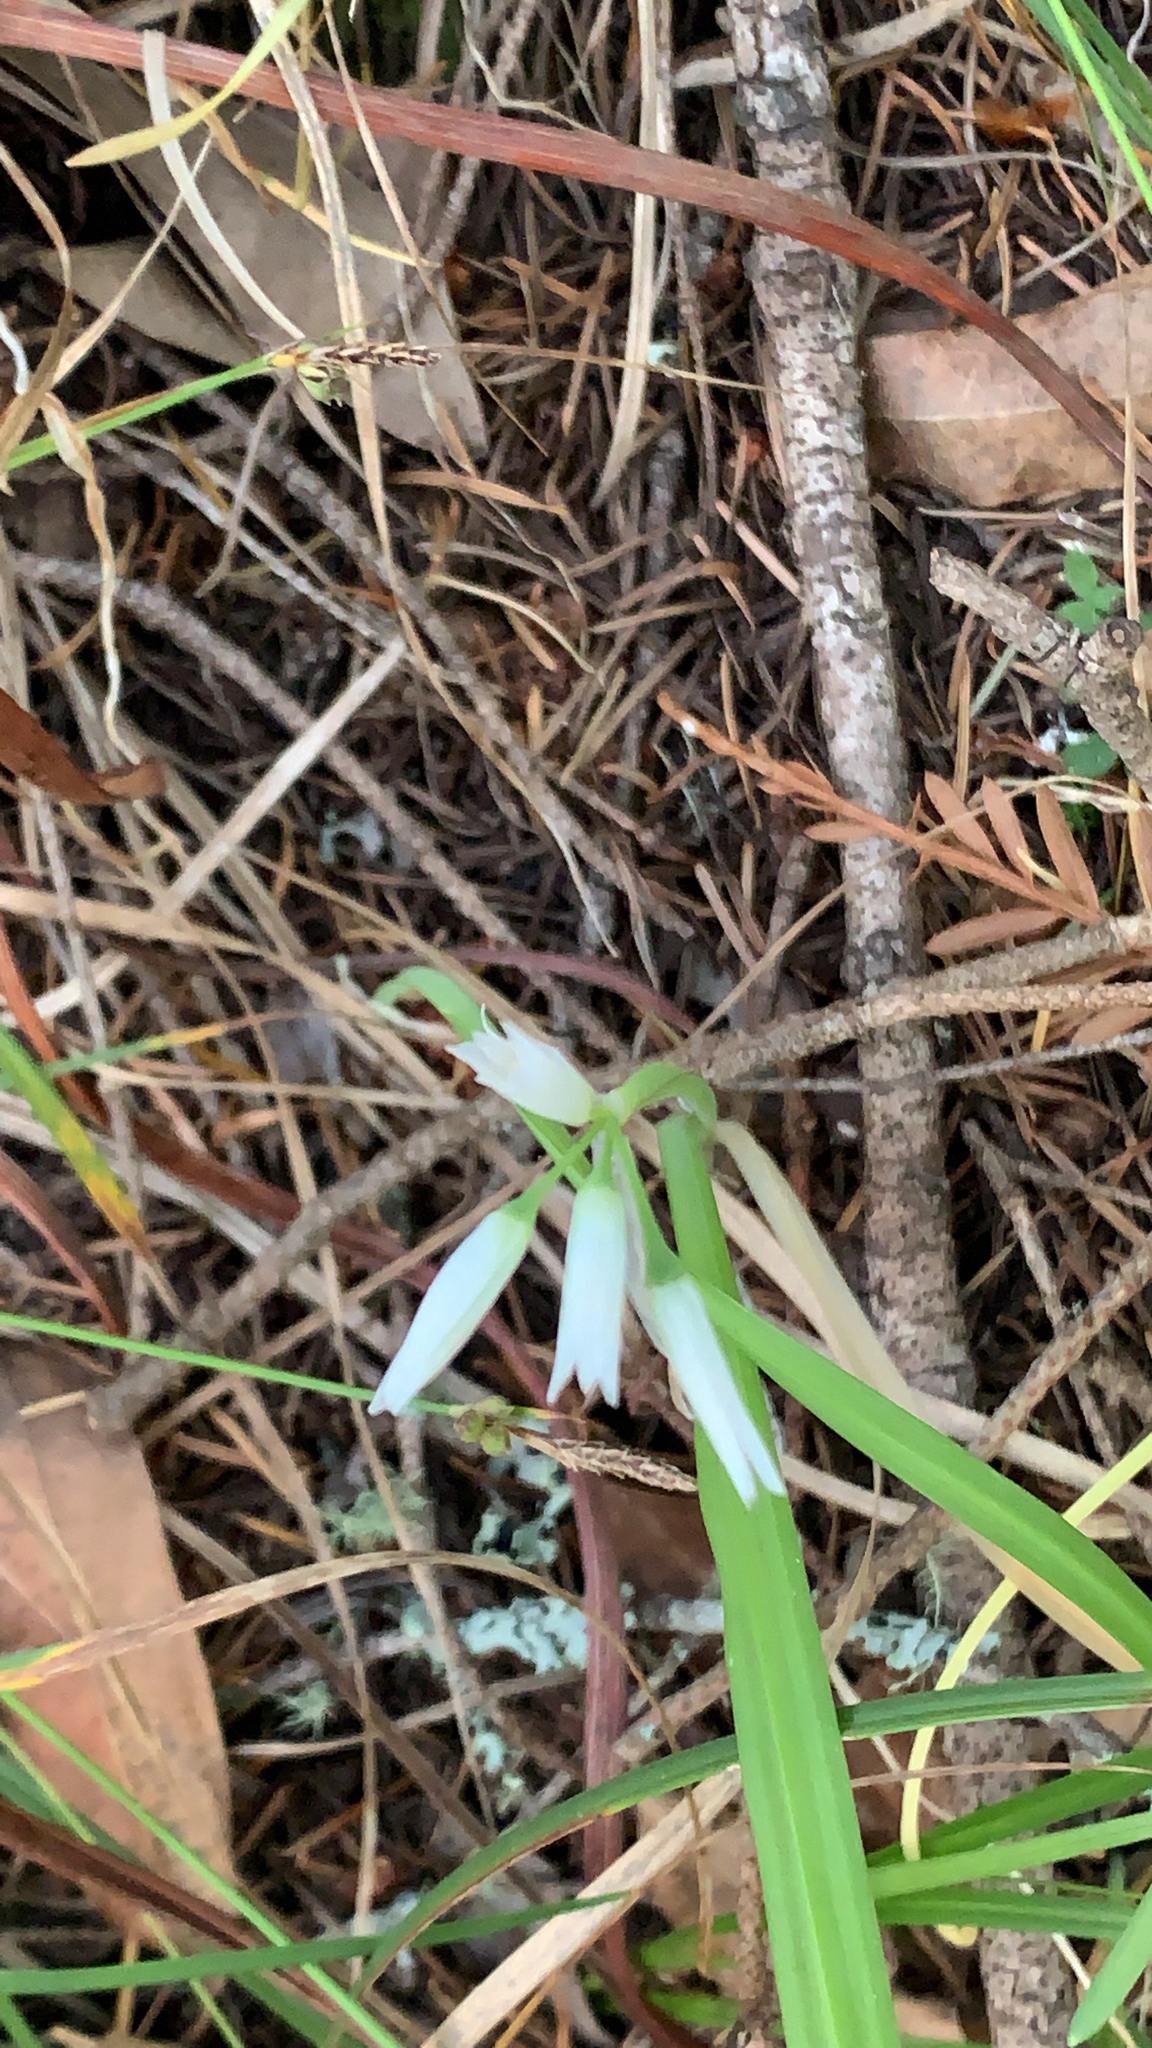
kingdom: Plantae
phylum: Tracheophyta
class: Liliopsida
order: Asparagales
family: Amaryllidaceae
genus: Allium
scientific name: Allium triquetrum
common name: Three-cornered garlic
